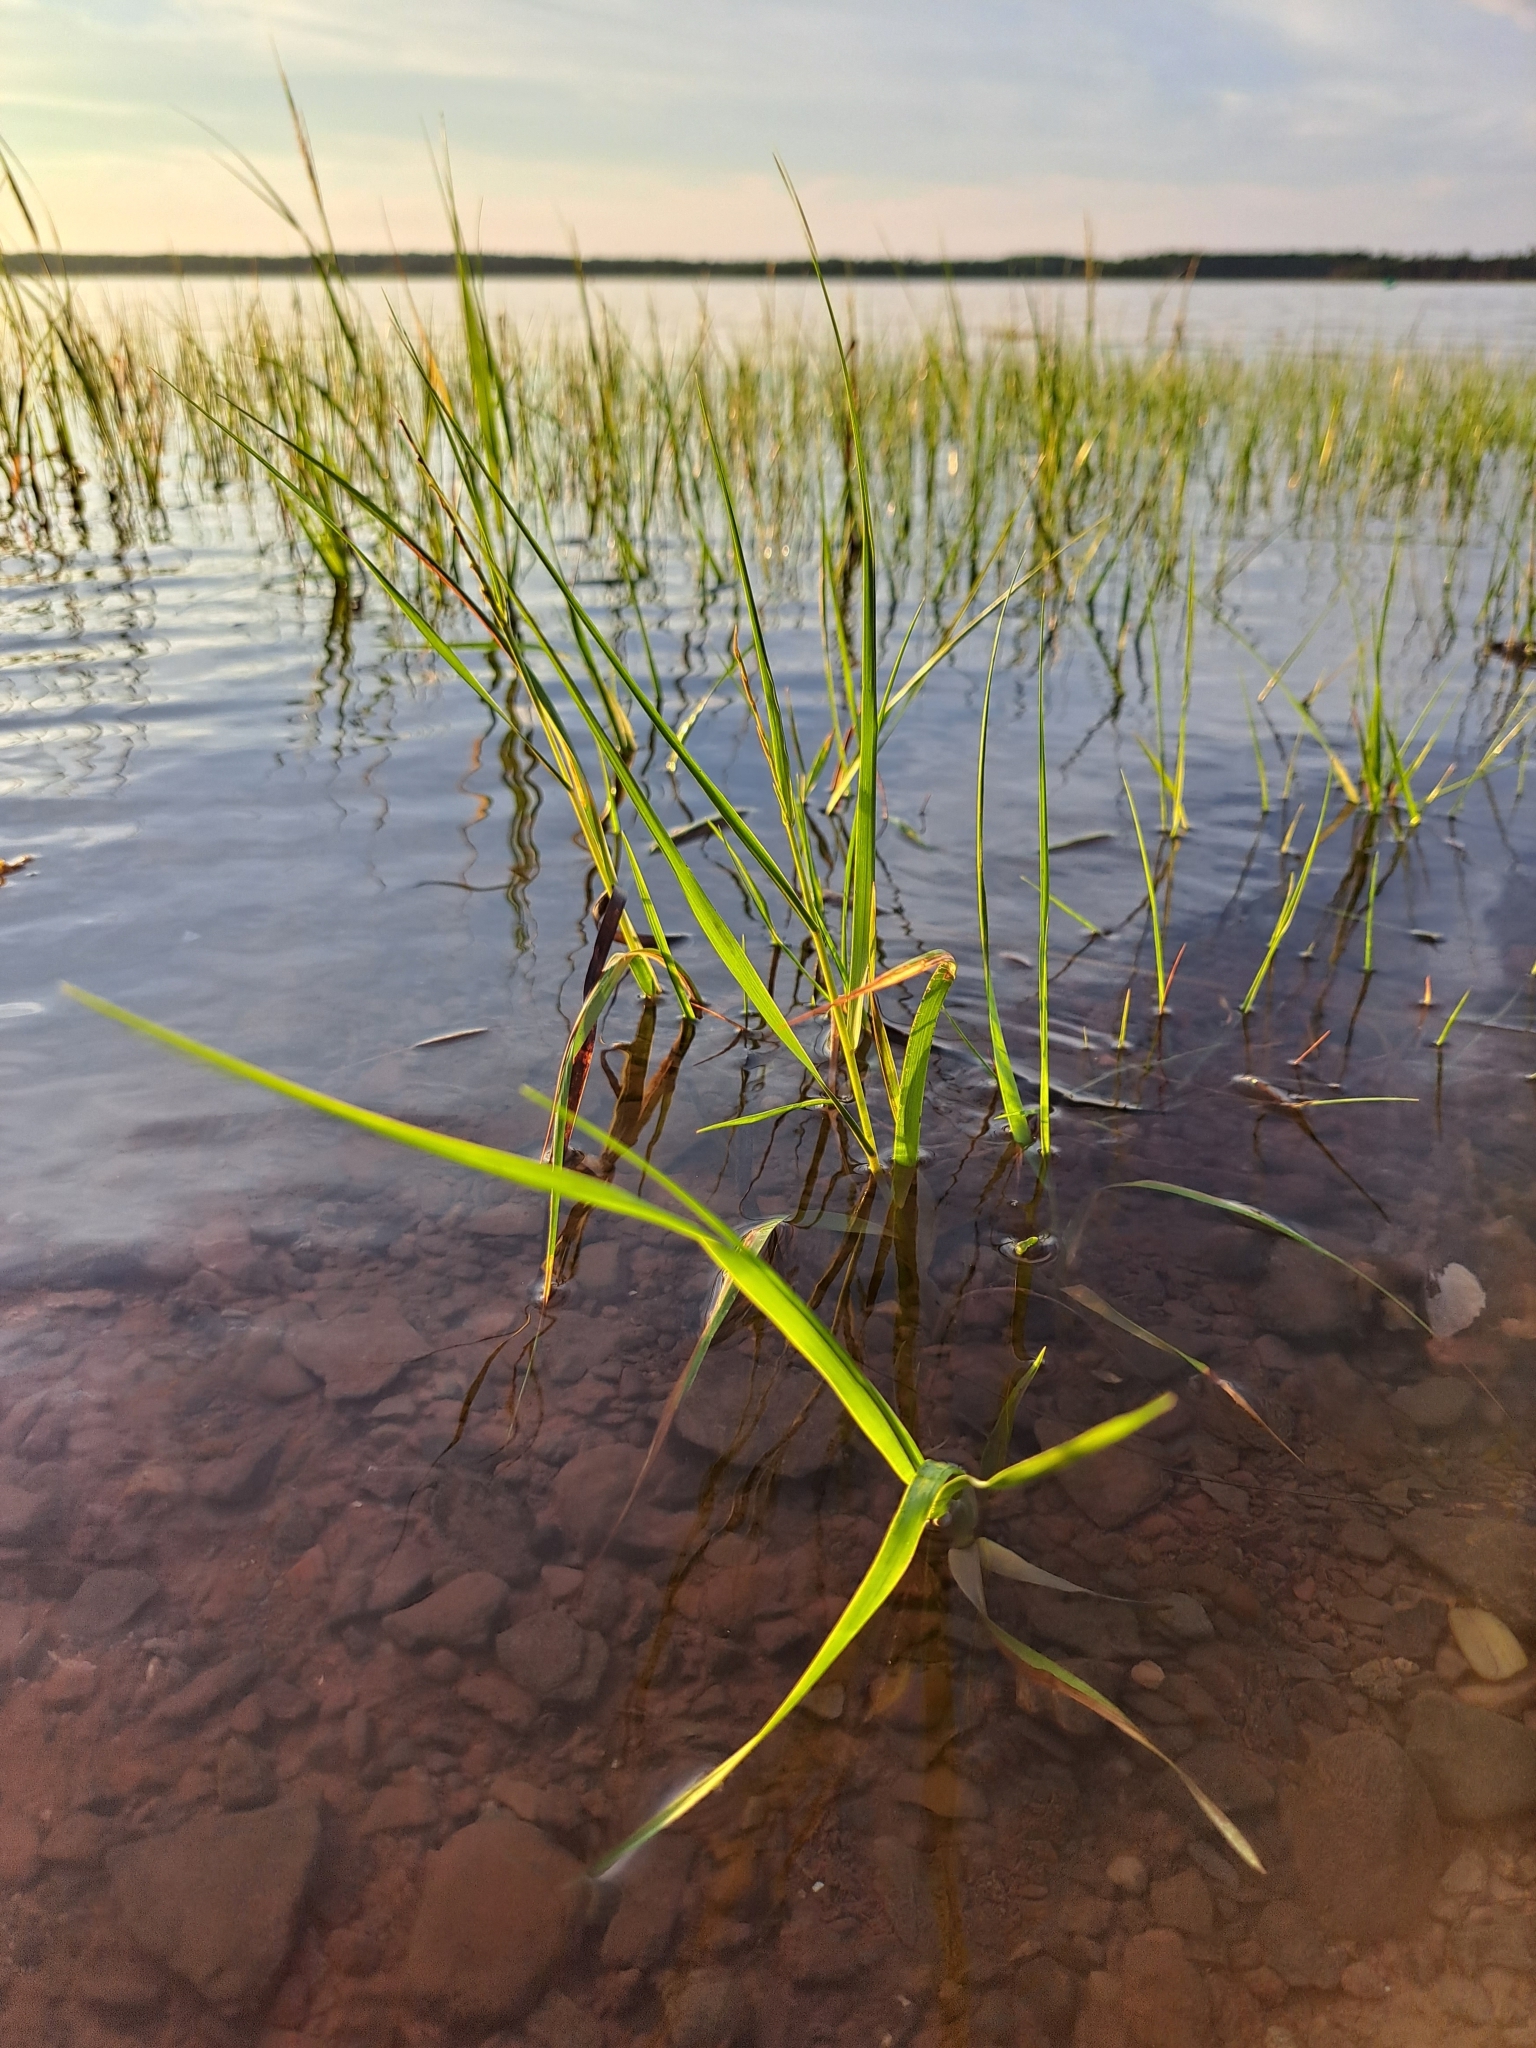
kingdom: Plantae
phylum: Tracheophyta
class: Liliopsida
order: Poales
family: Poaceae
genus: Sporobolus
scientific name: Sporobolus alterniflorus
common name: Atlantic cordgrass
